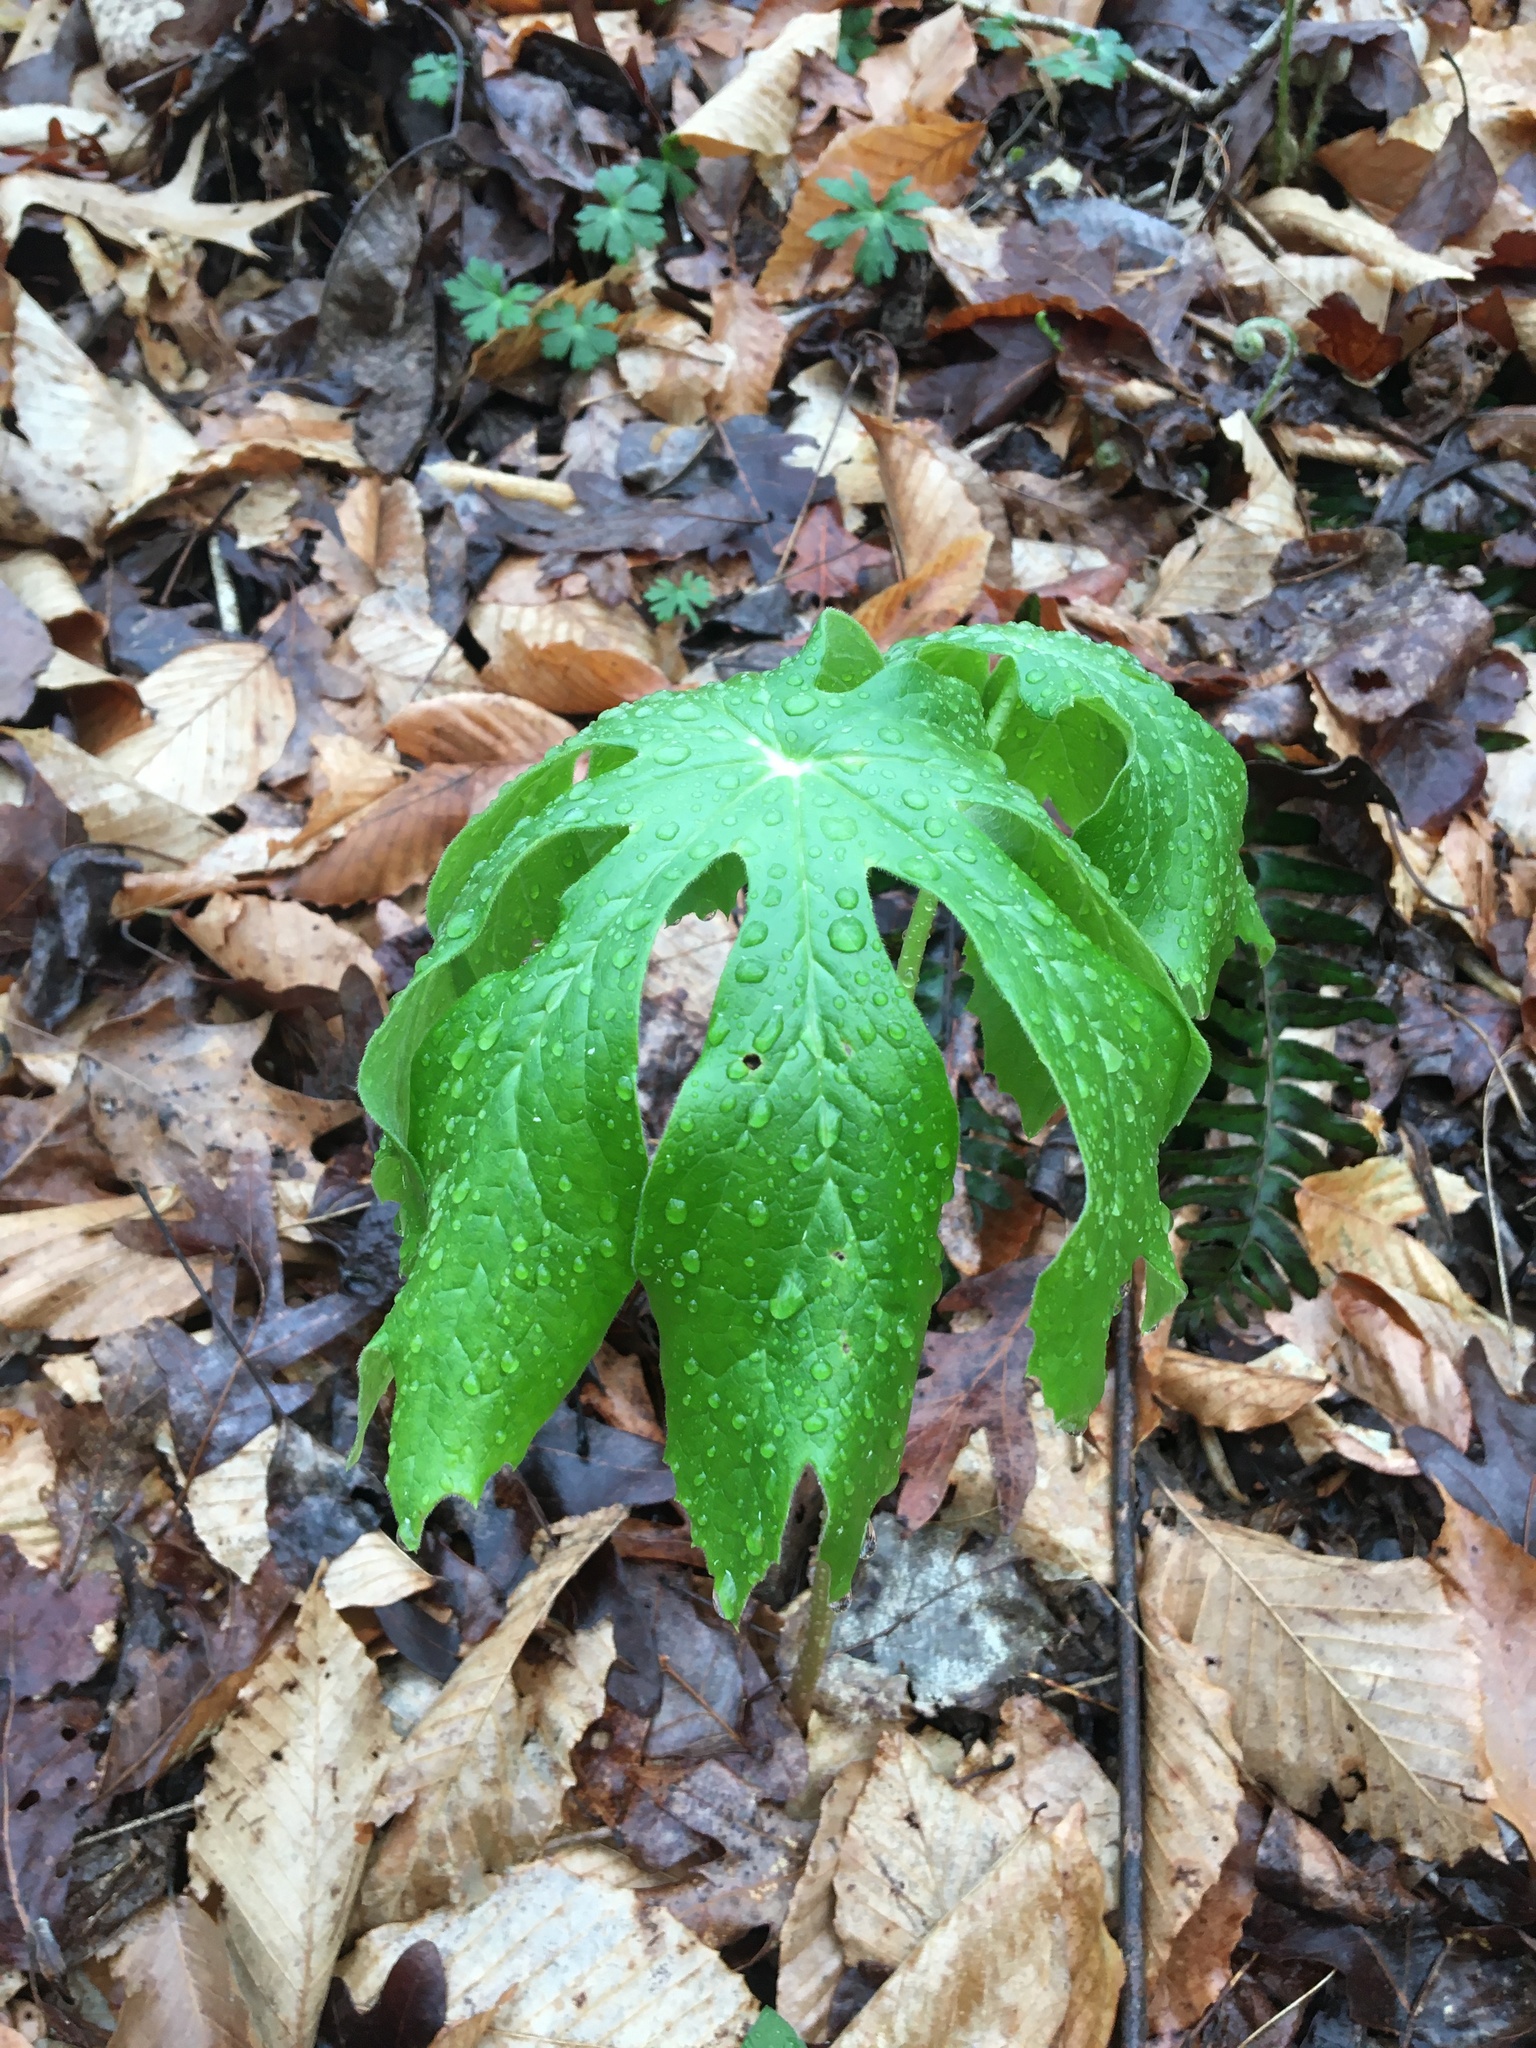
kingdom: Plantae
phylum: Tracheophyta
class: Magnoliopsida
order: Ranunculales
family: Berberidaceae
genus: Podophyllum
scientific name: Podophyllum peltatum
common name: Wild mandrake
